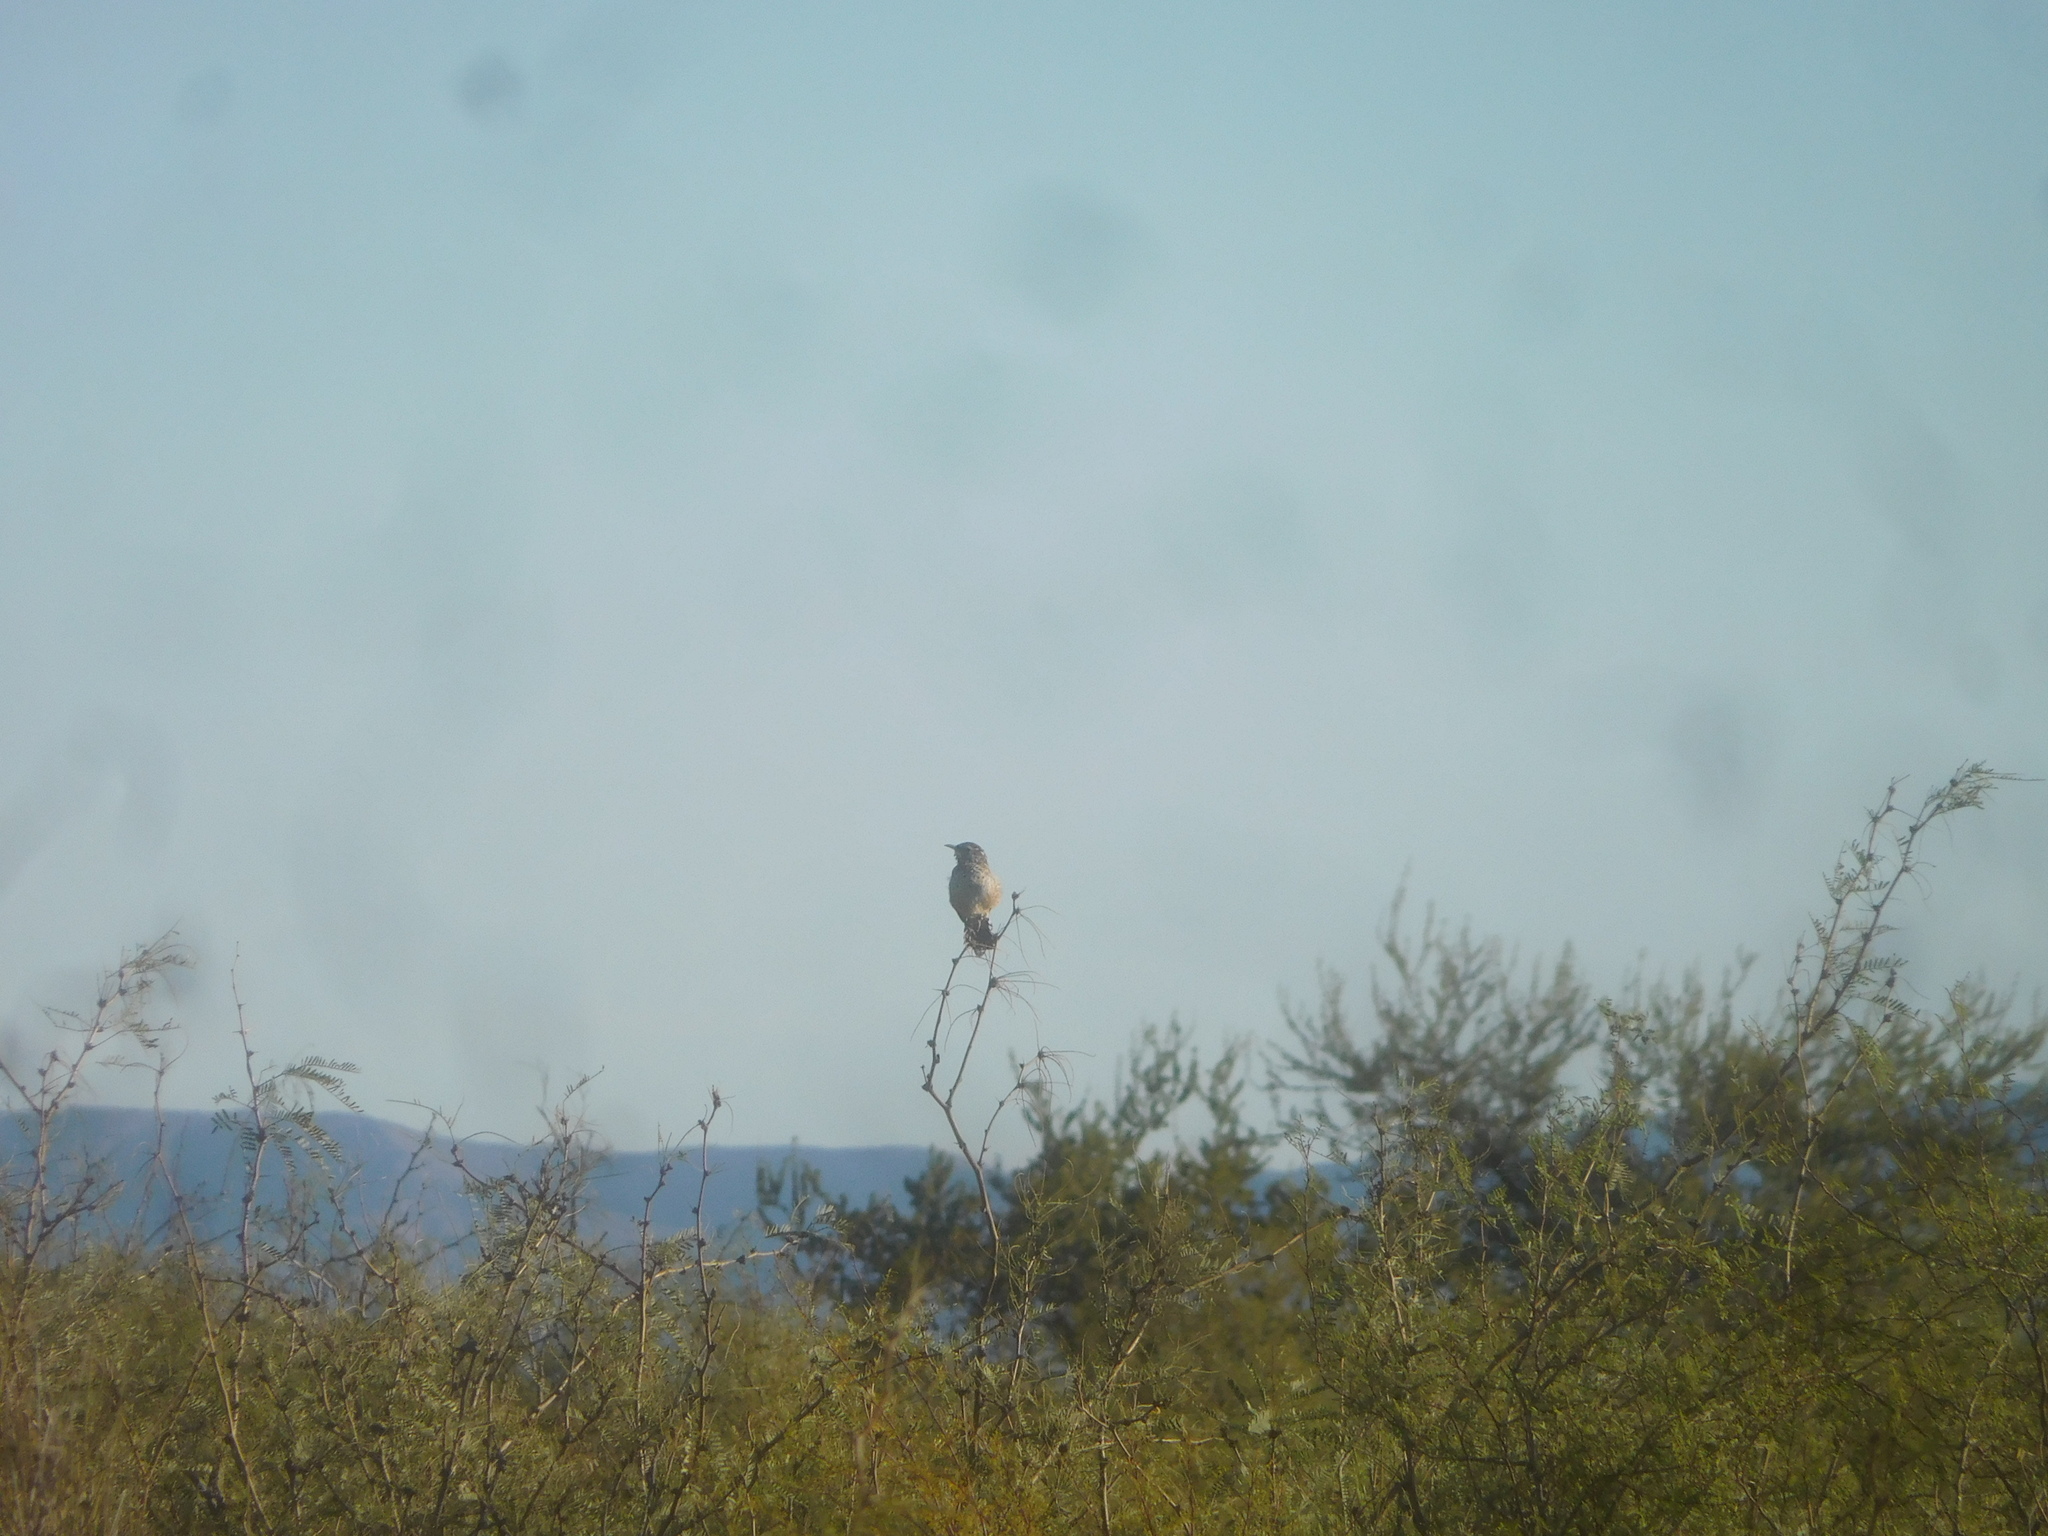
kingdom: Animalia
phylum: Chordata
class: Aves
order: Passeriformes
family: Troglodytidae
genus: Campylorhynchus
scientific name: Campylorhynchus brunneicapillus
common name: Cactus wren
